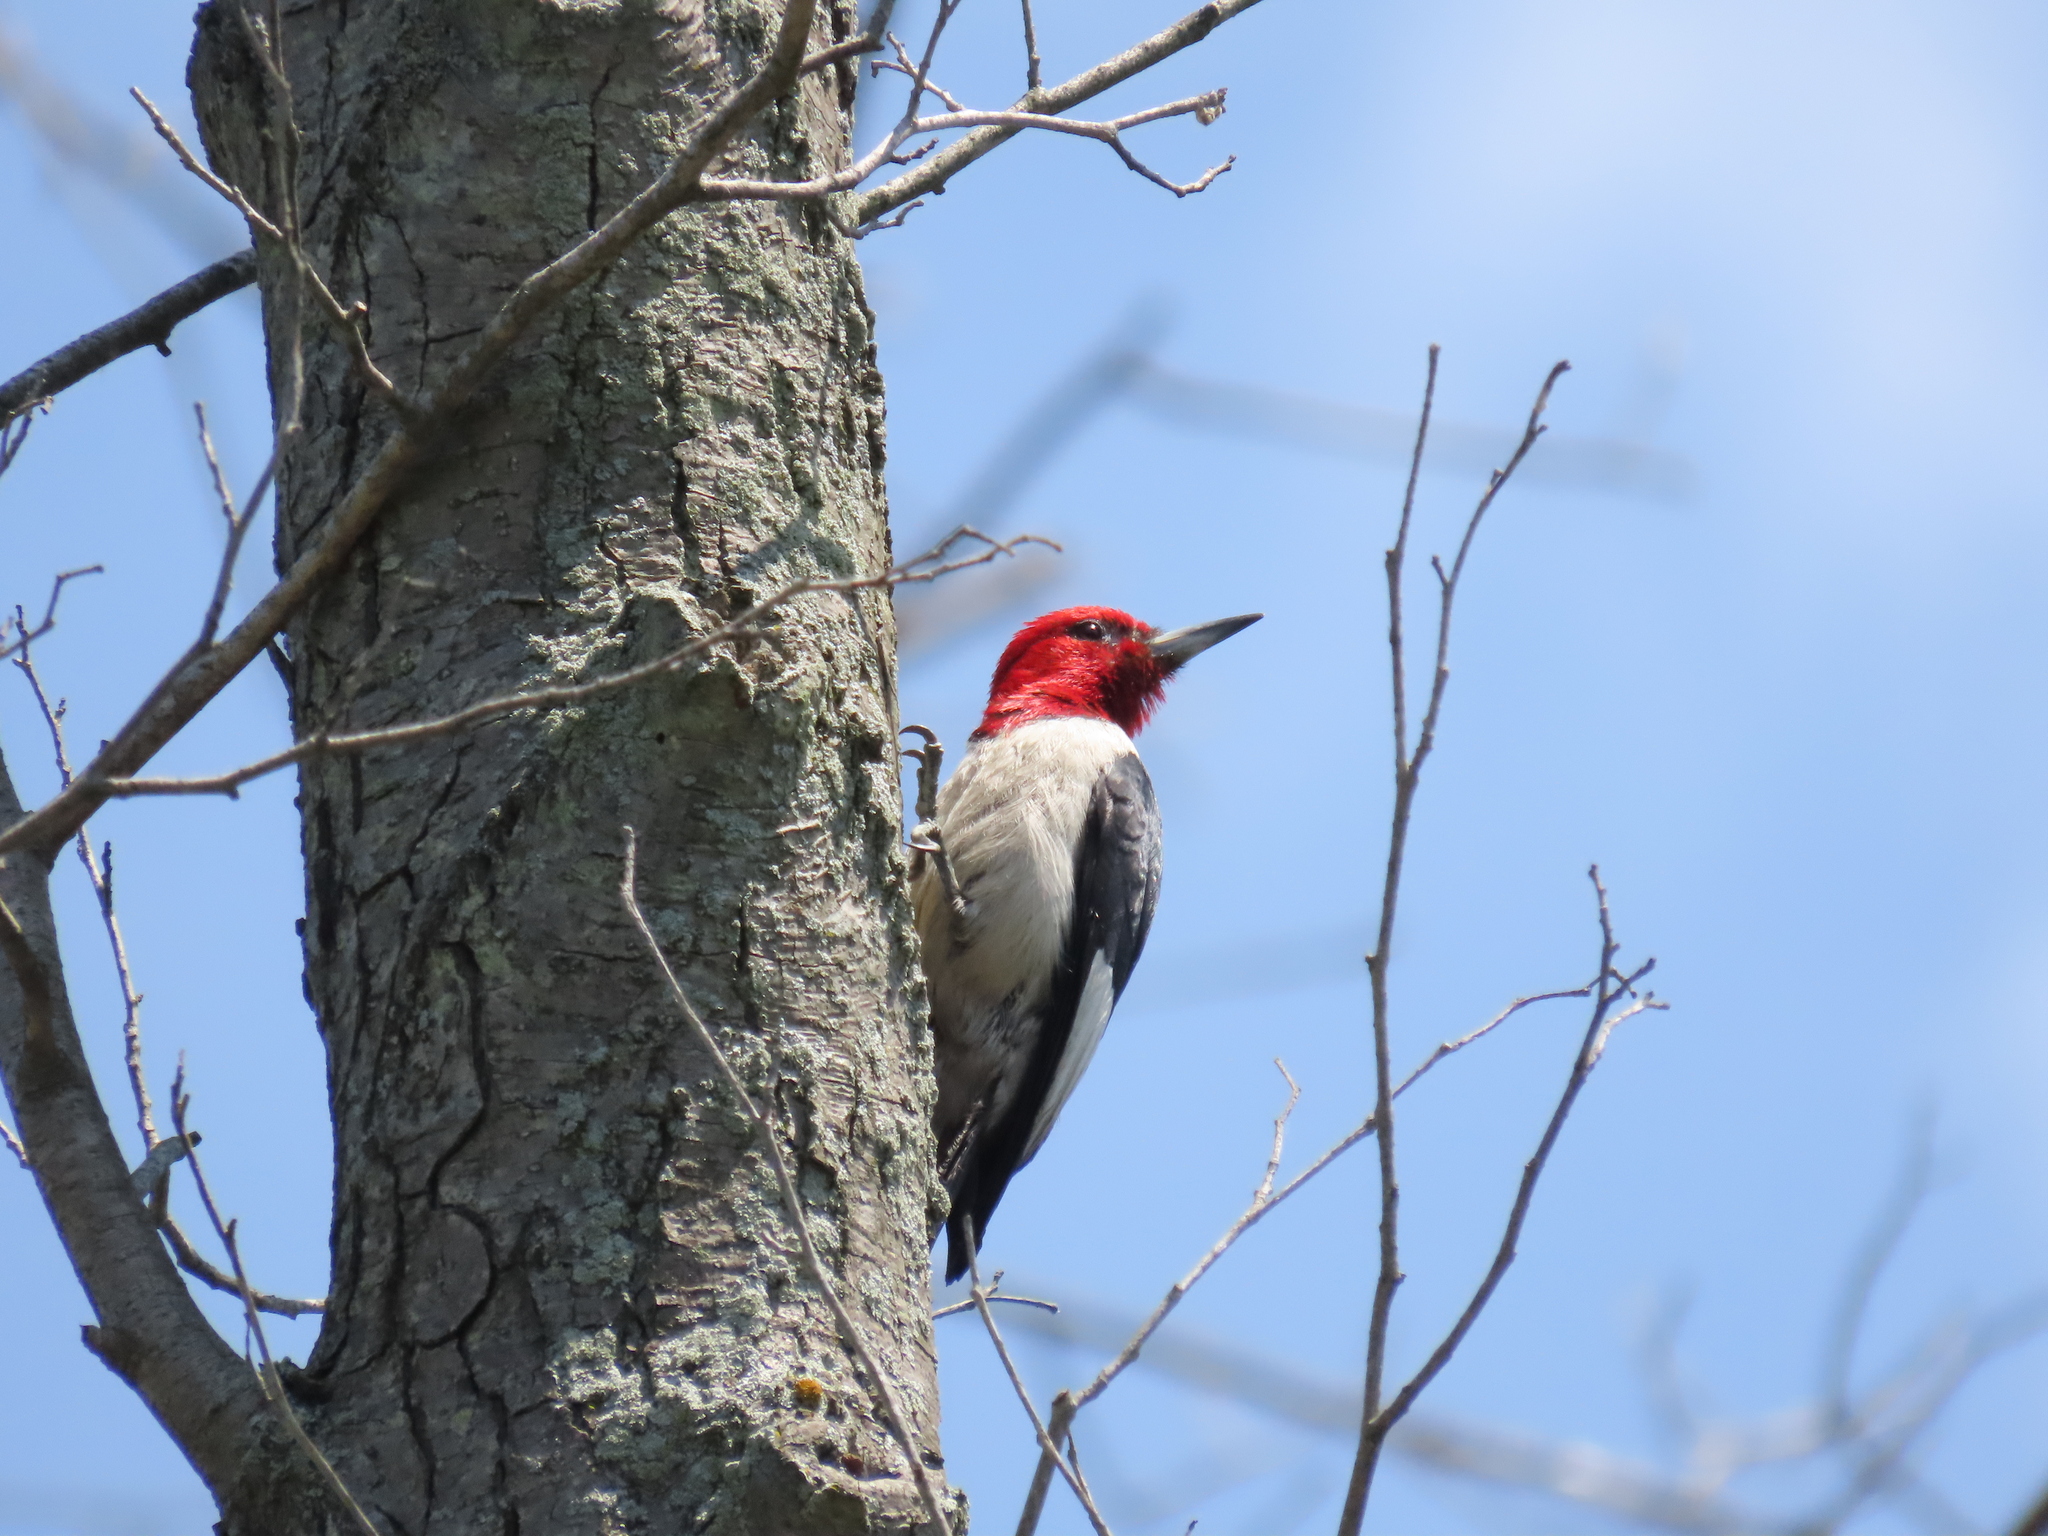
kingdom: Animalia
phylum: Chordata
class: Aves
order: Piciformes
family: Picidae
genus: Melanerpes
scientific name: Melanerpes erythrocephalus
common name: Red-headed woodpecker
